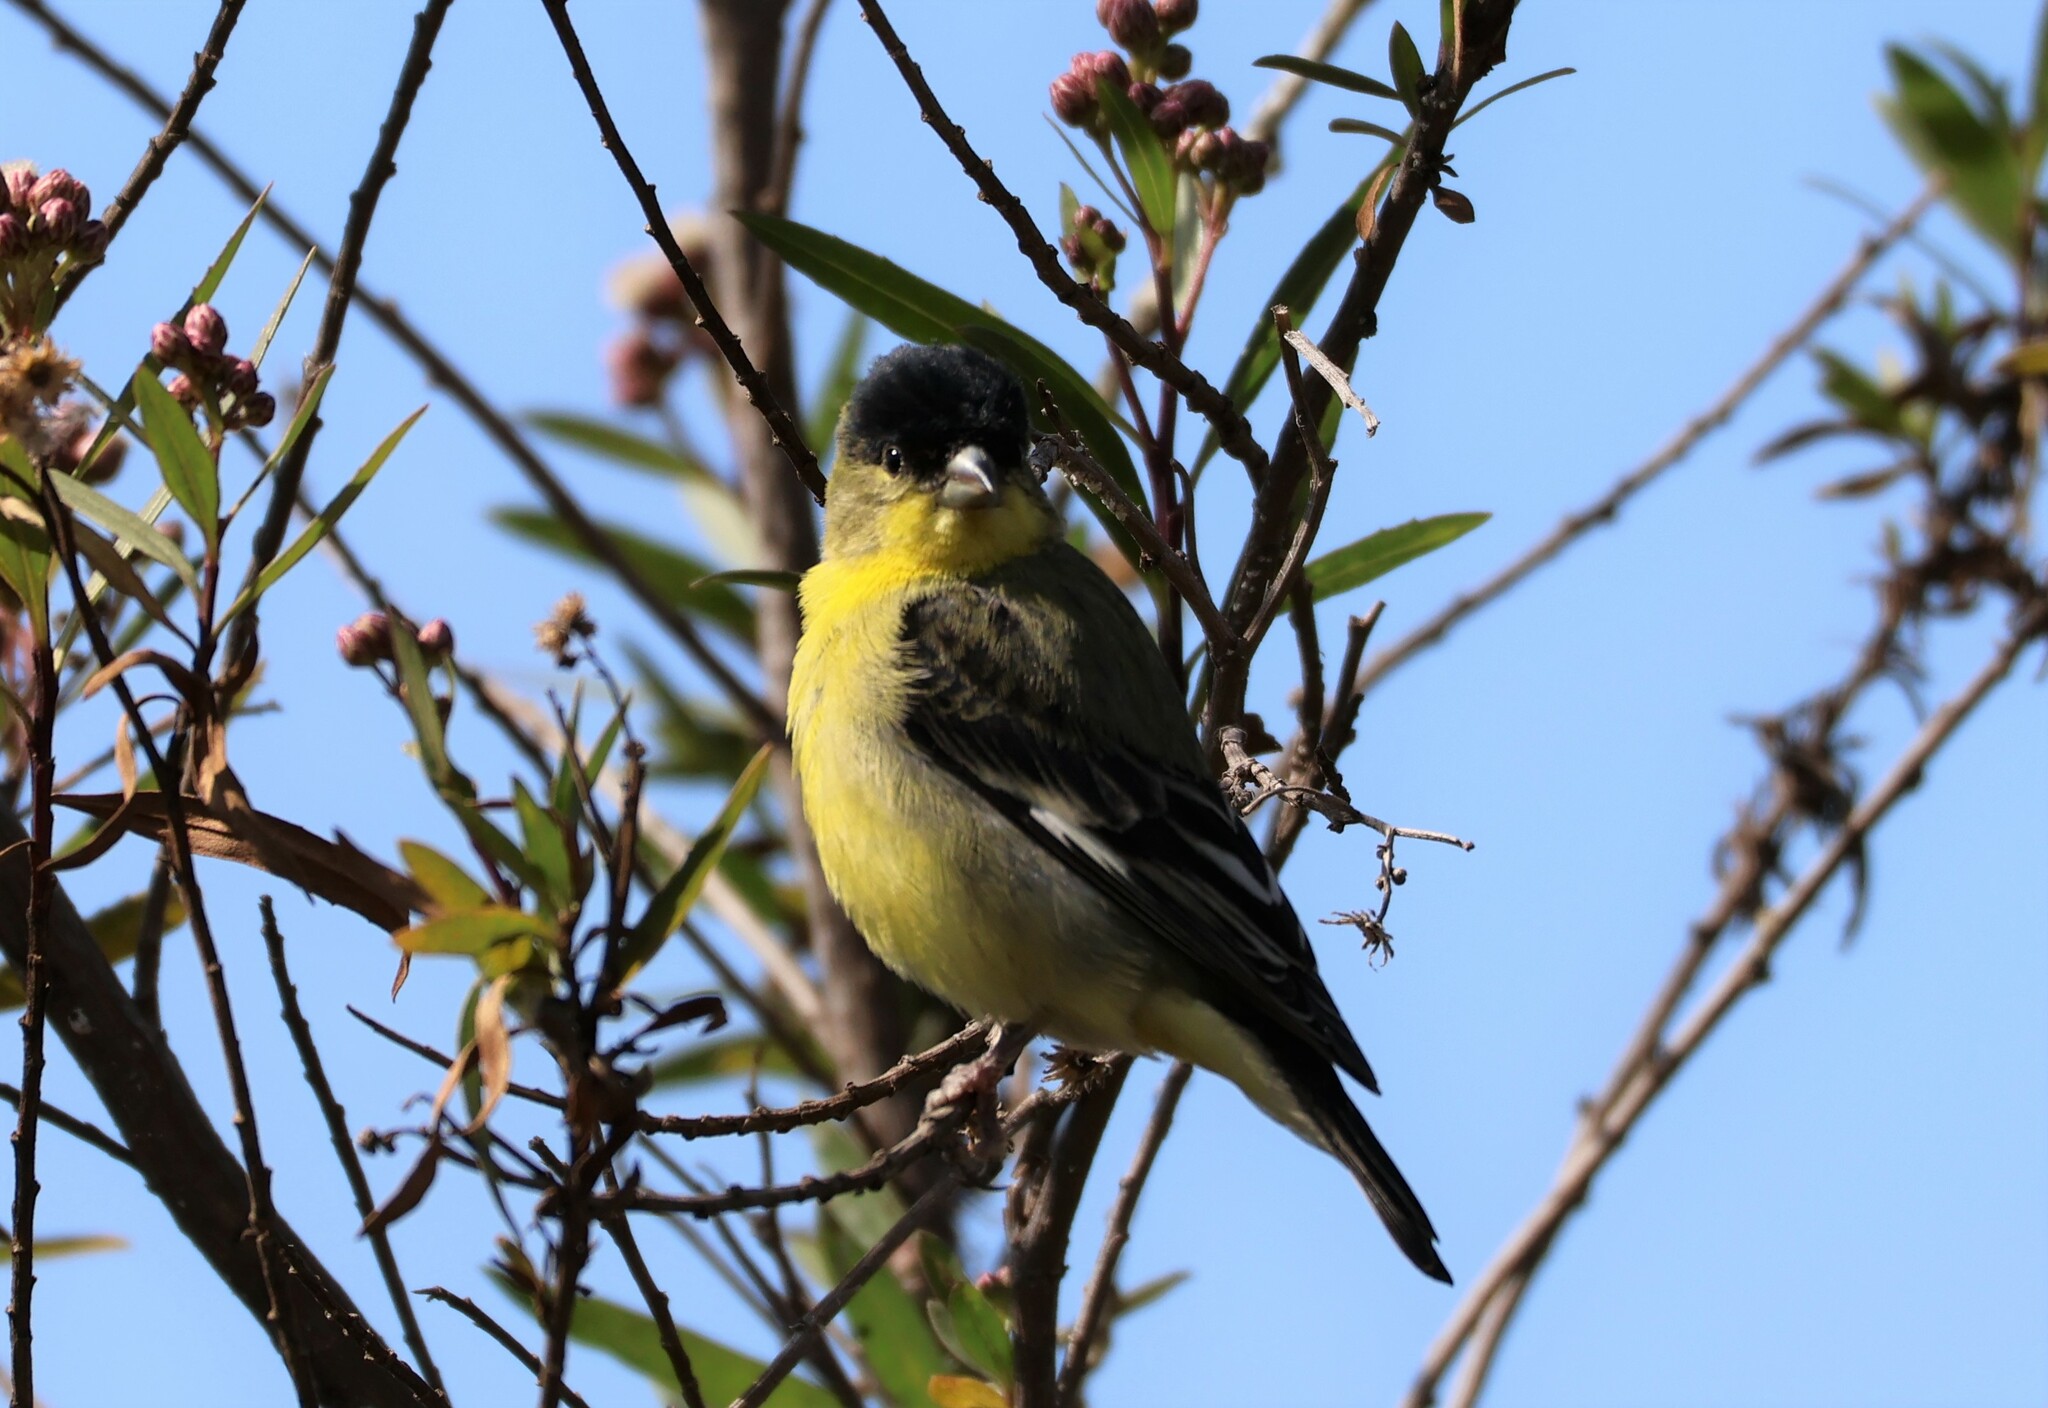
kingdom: Animalia
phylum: Chordata
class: Aves
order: Passeriformes
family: Fringillidae
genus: Spinus
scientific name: Spinus psaltria
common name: Lesser goldfinch
